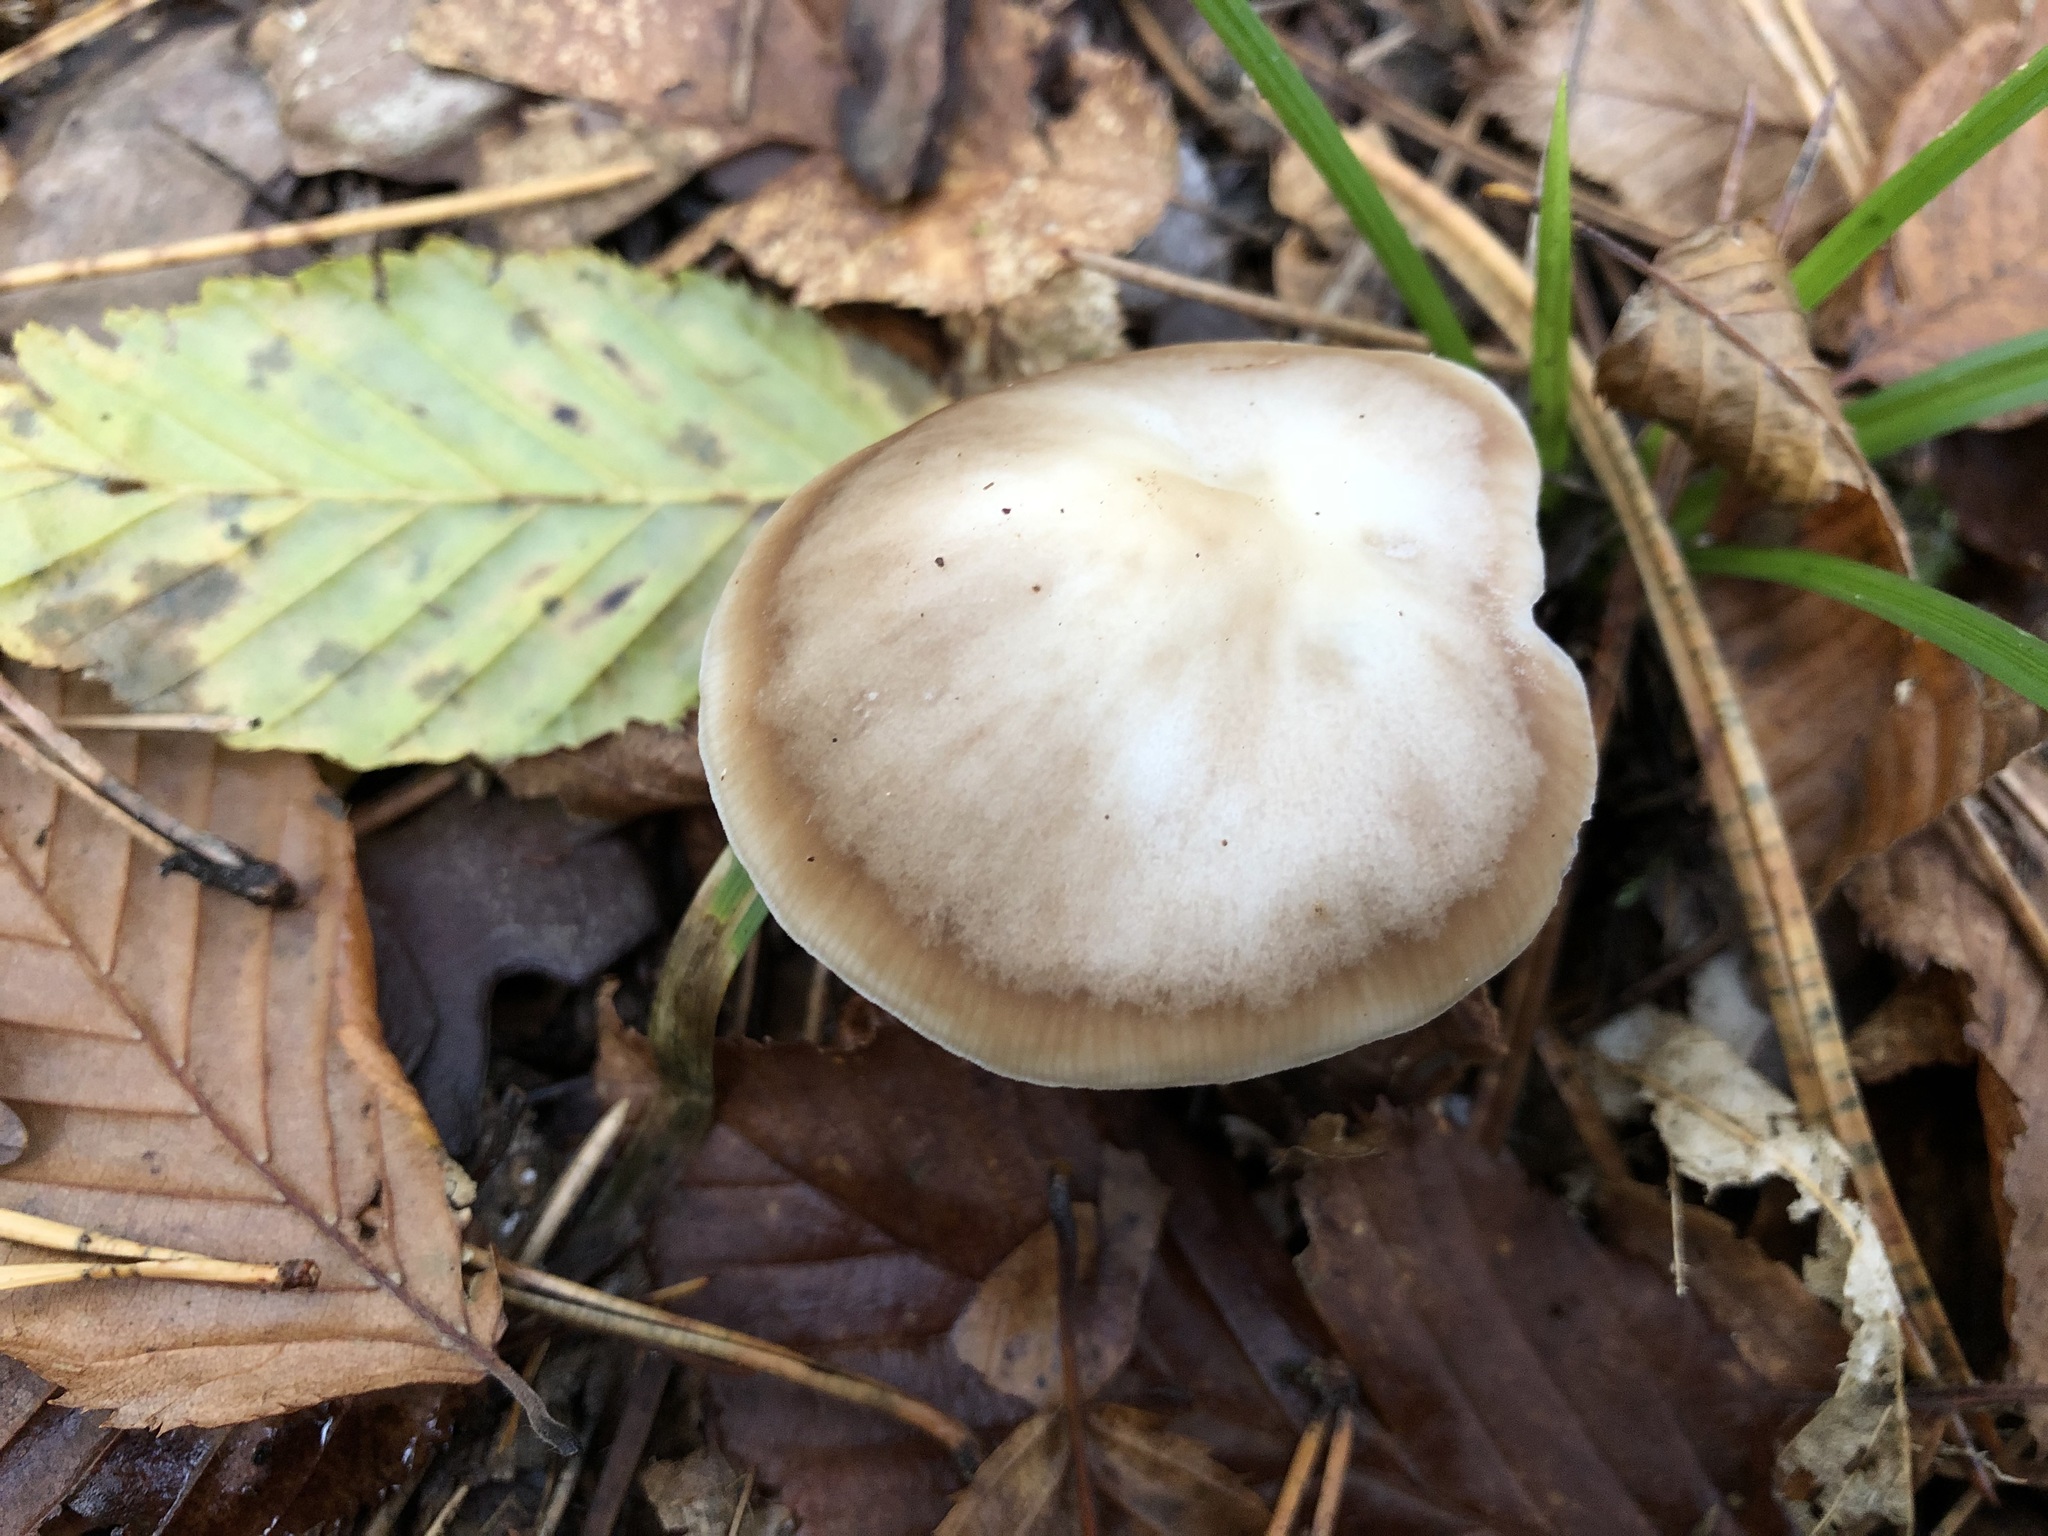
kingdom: Fungi
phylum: Basidiomycota
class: Agaricomycetes
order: Agaricales
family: Omphalotaceae
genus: Rhodocollybia
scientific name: Rhodocollybia asema
